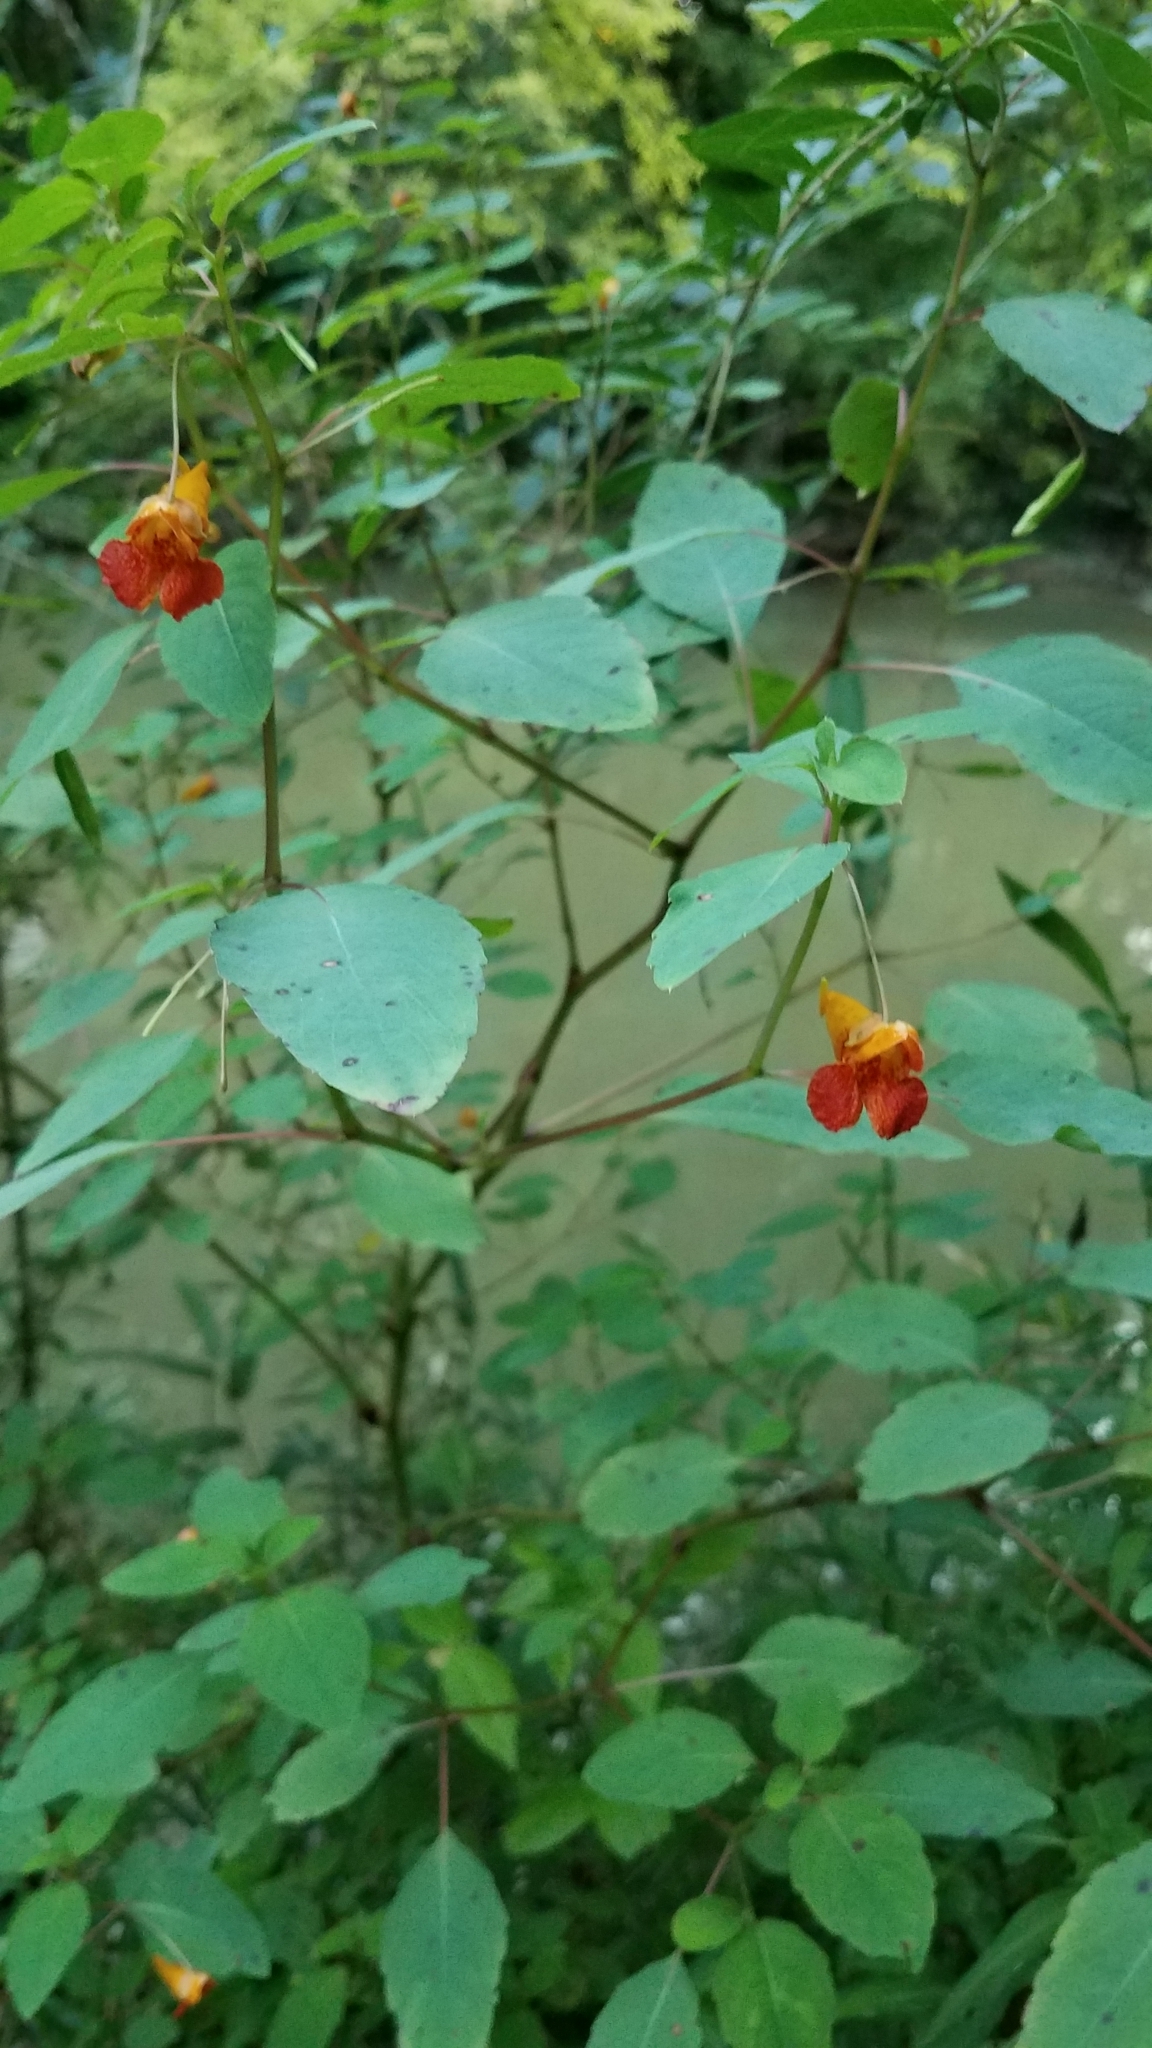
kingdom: Plantae
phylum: Tracheophyta
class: Magnoliopsida
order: Ericales
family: Balsaminaceae
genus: Impatiens
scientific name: Impatiens capensis
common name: Orange balsam
